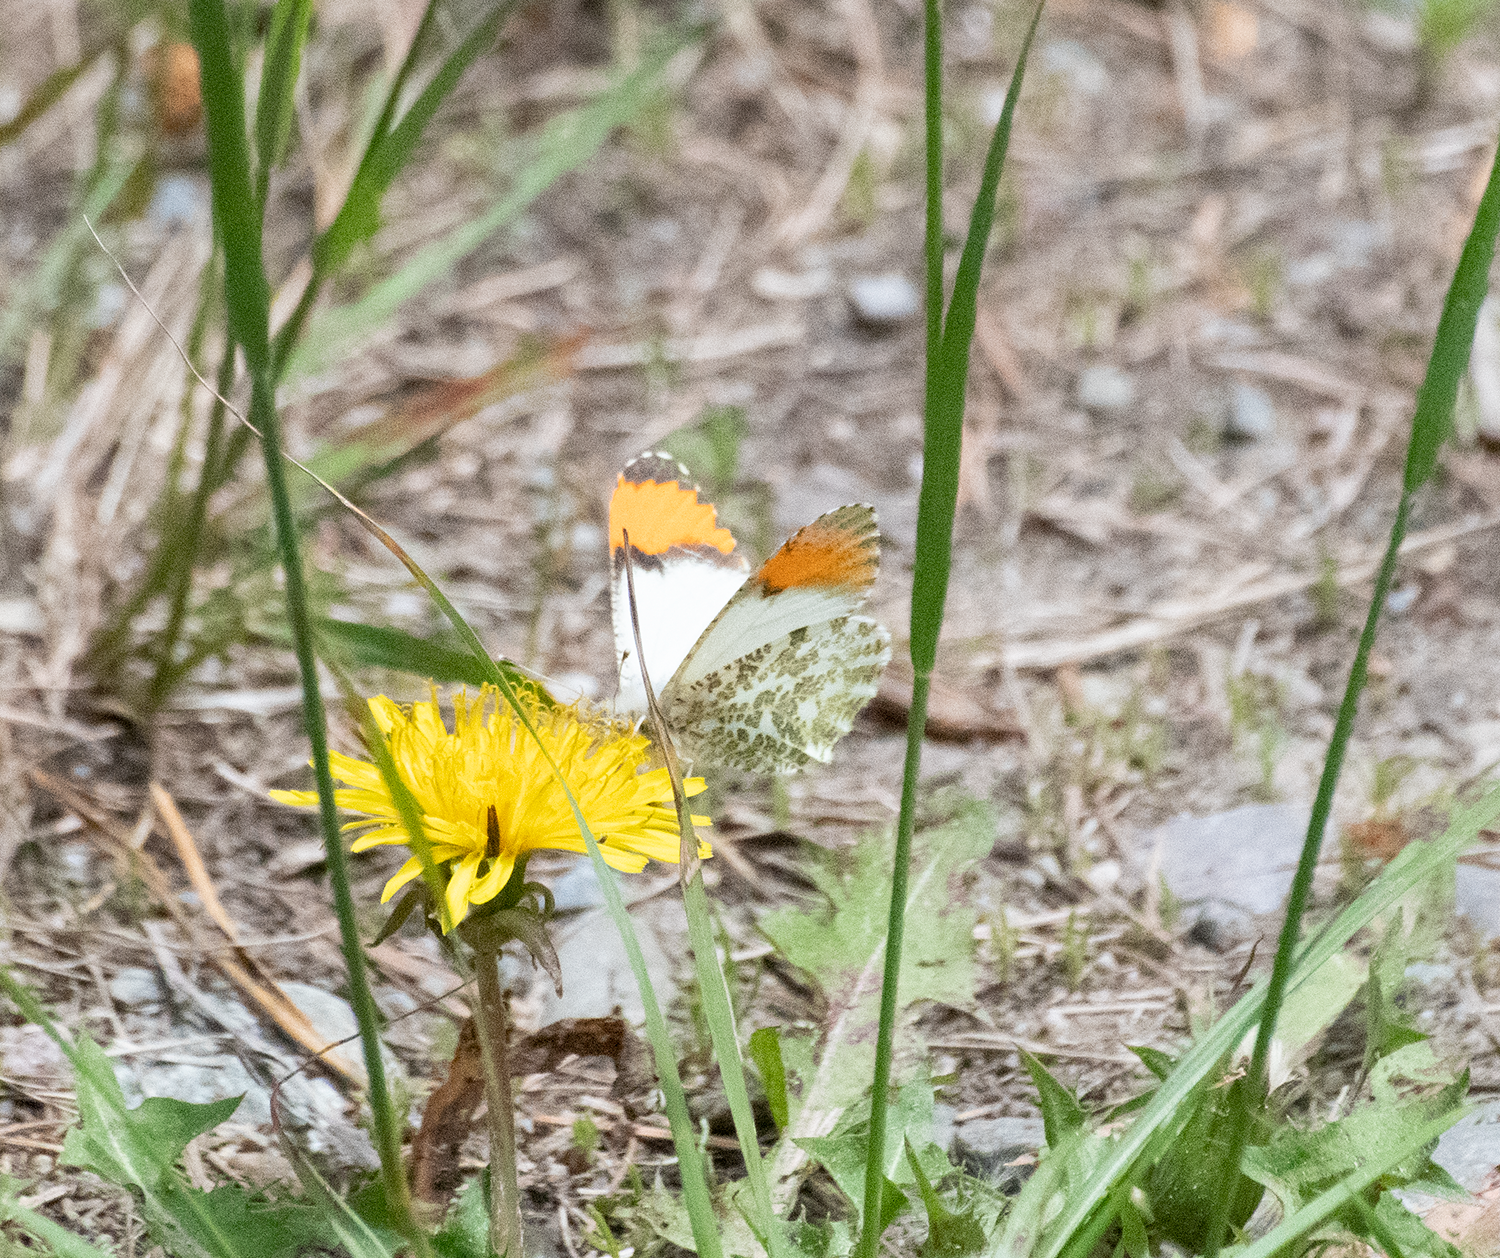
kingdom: Animalia
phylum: Arthropoda
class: Insecta
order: Lepidoptera
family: Pieridae
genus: Anthocharis
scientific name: Anthocharis julia
